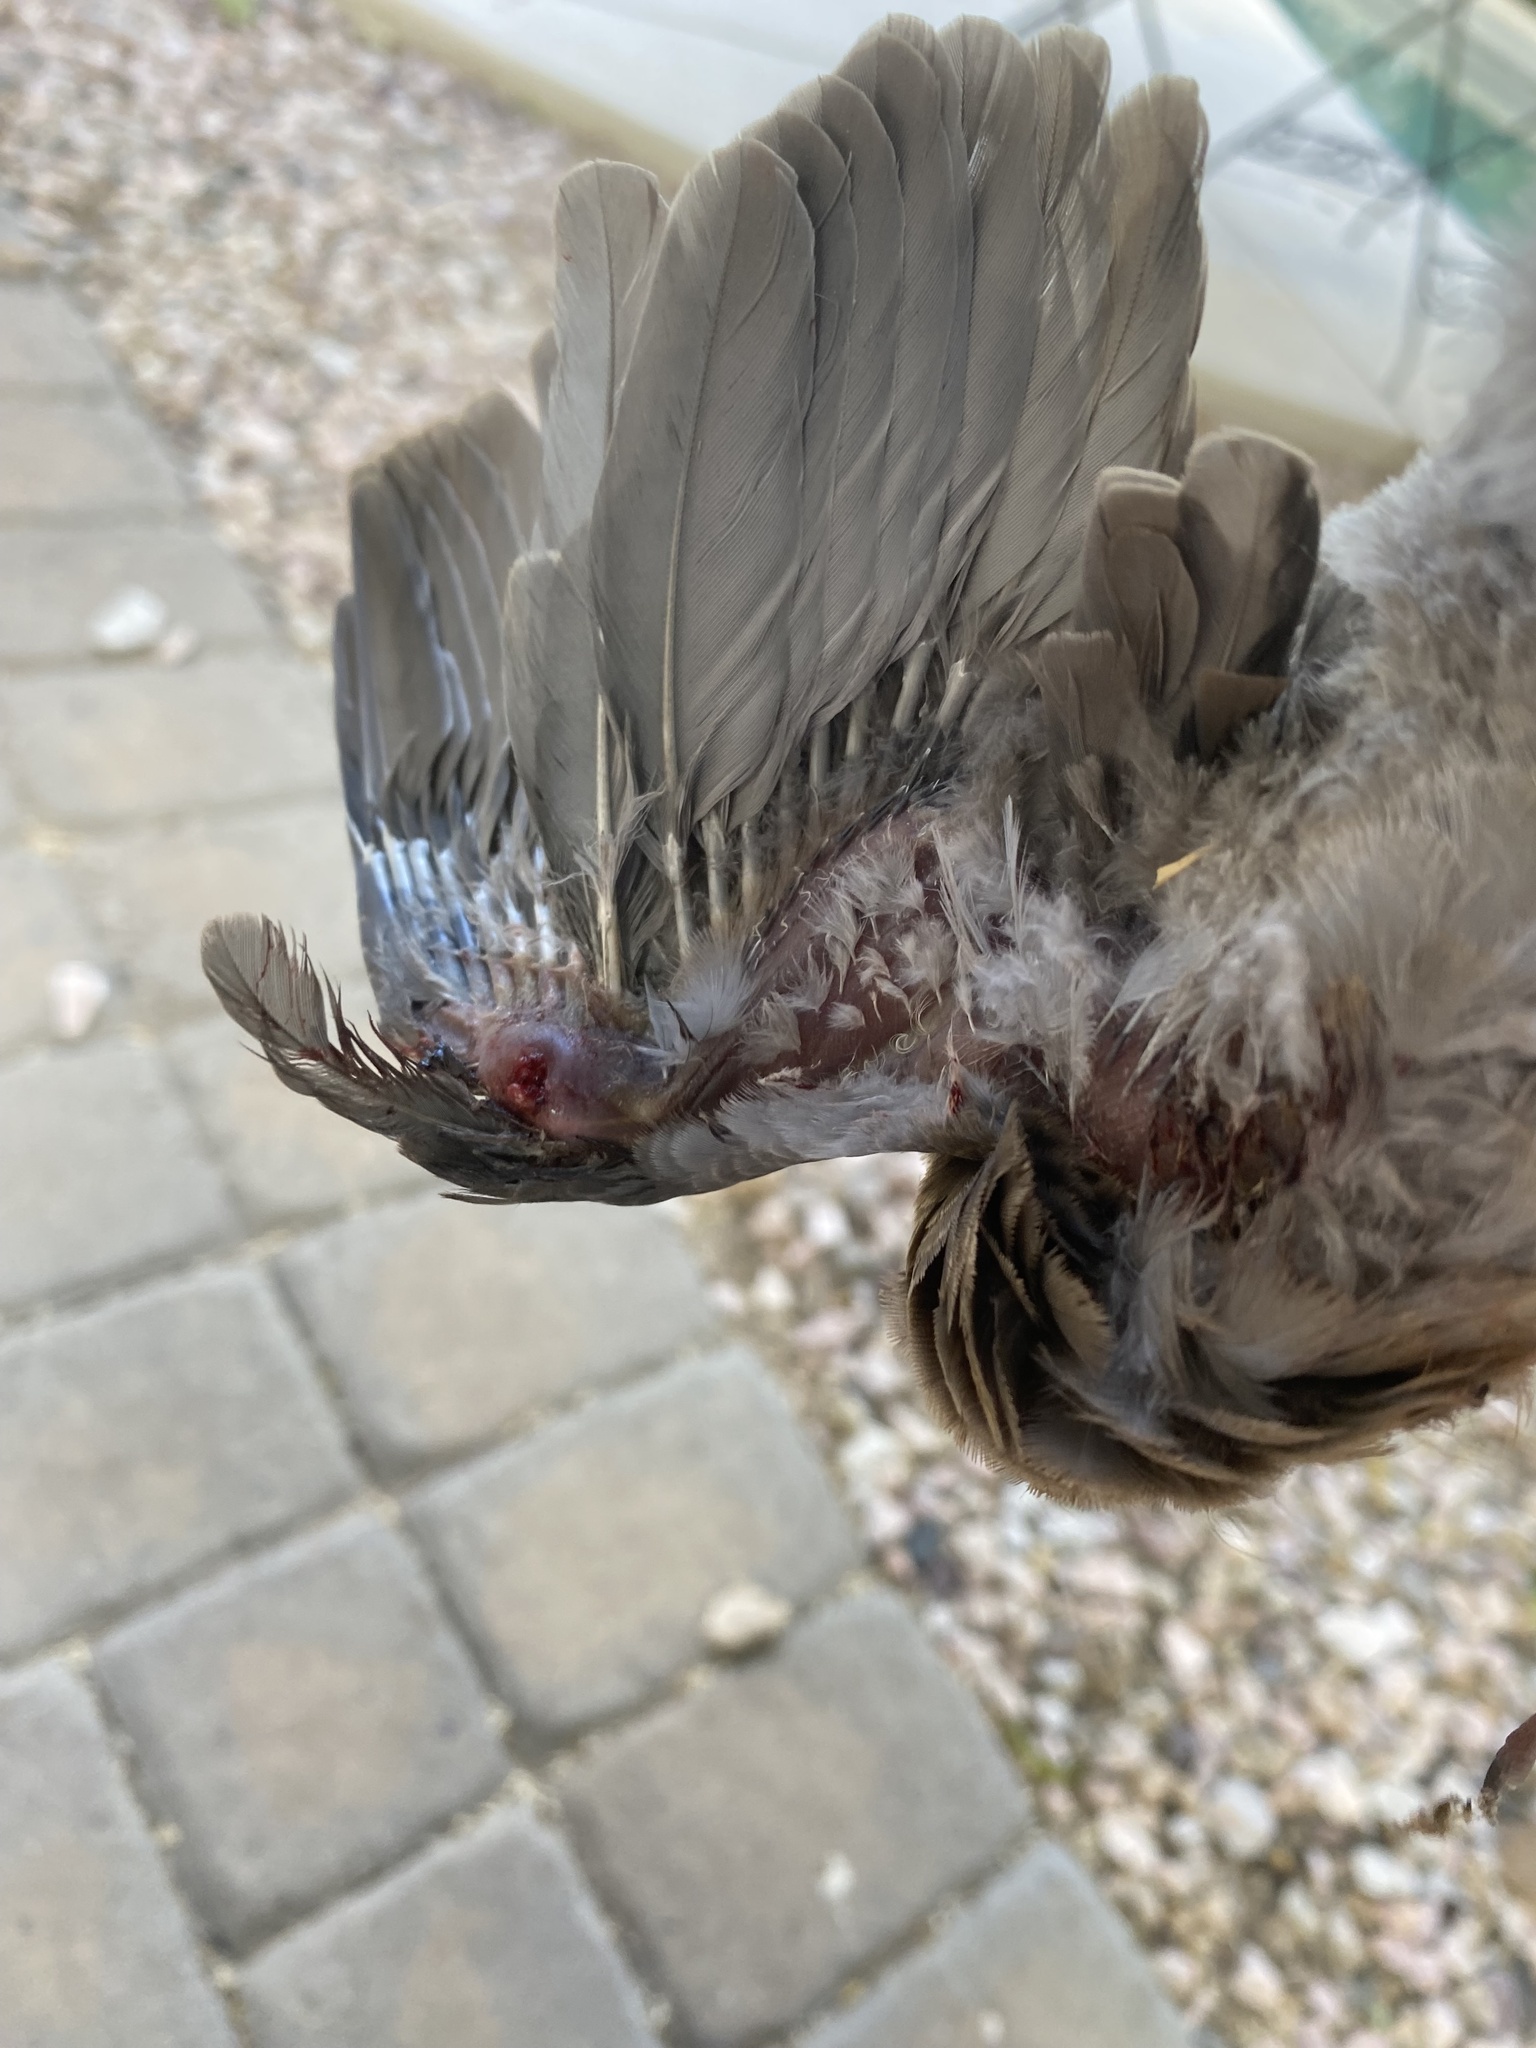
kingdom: Animalia
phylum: Chordata
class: Aves
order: Columbiformes
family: Columbidae
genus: Zenaida
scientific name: Zenaida macroura
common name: Mourning dove
